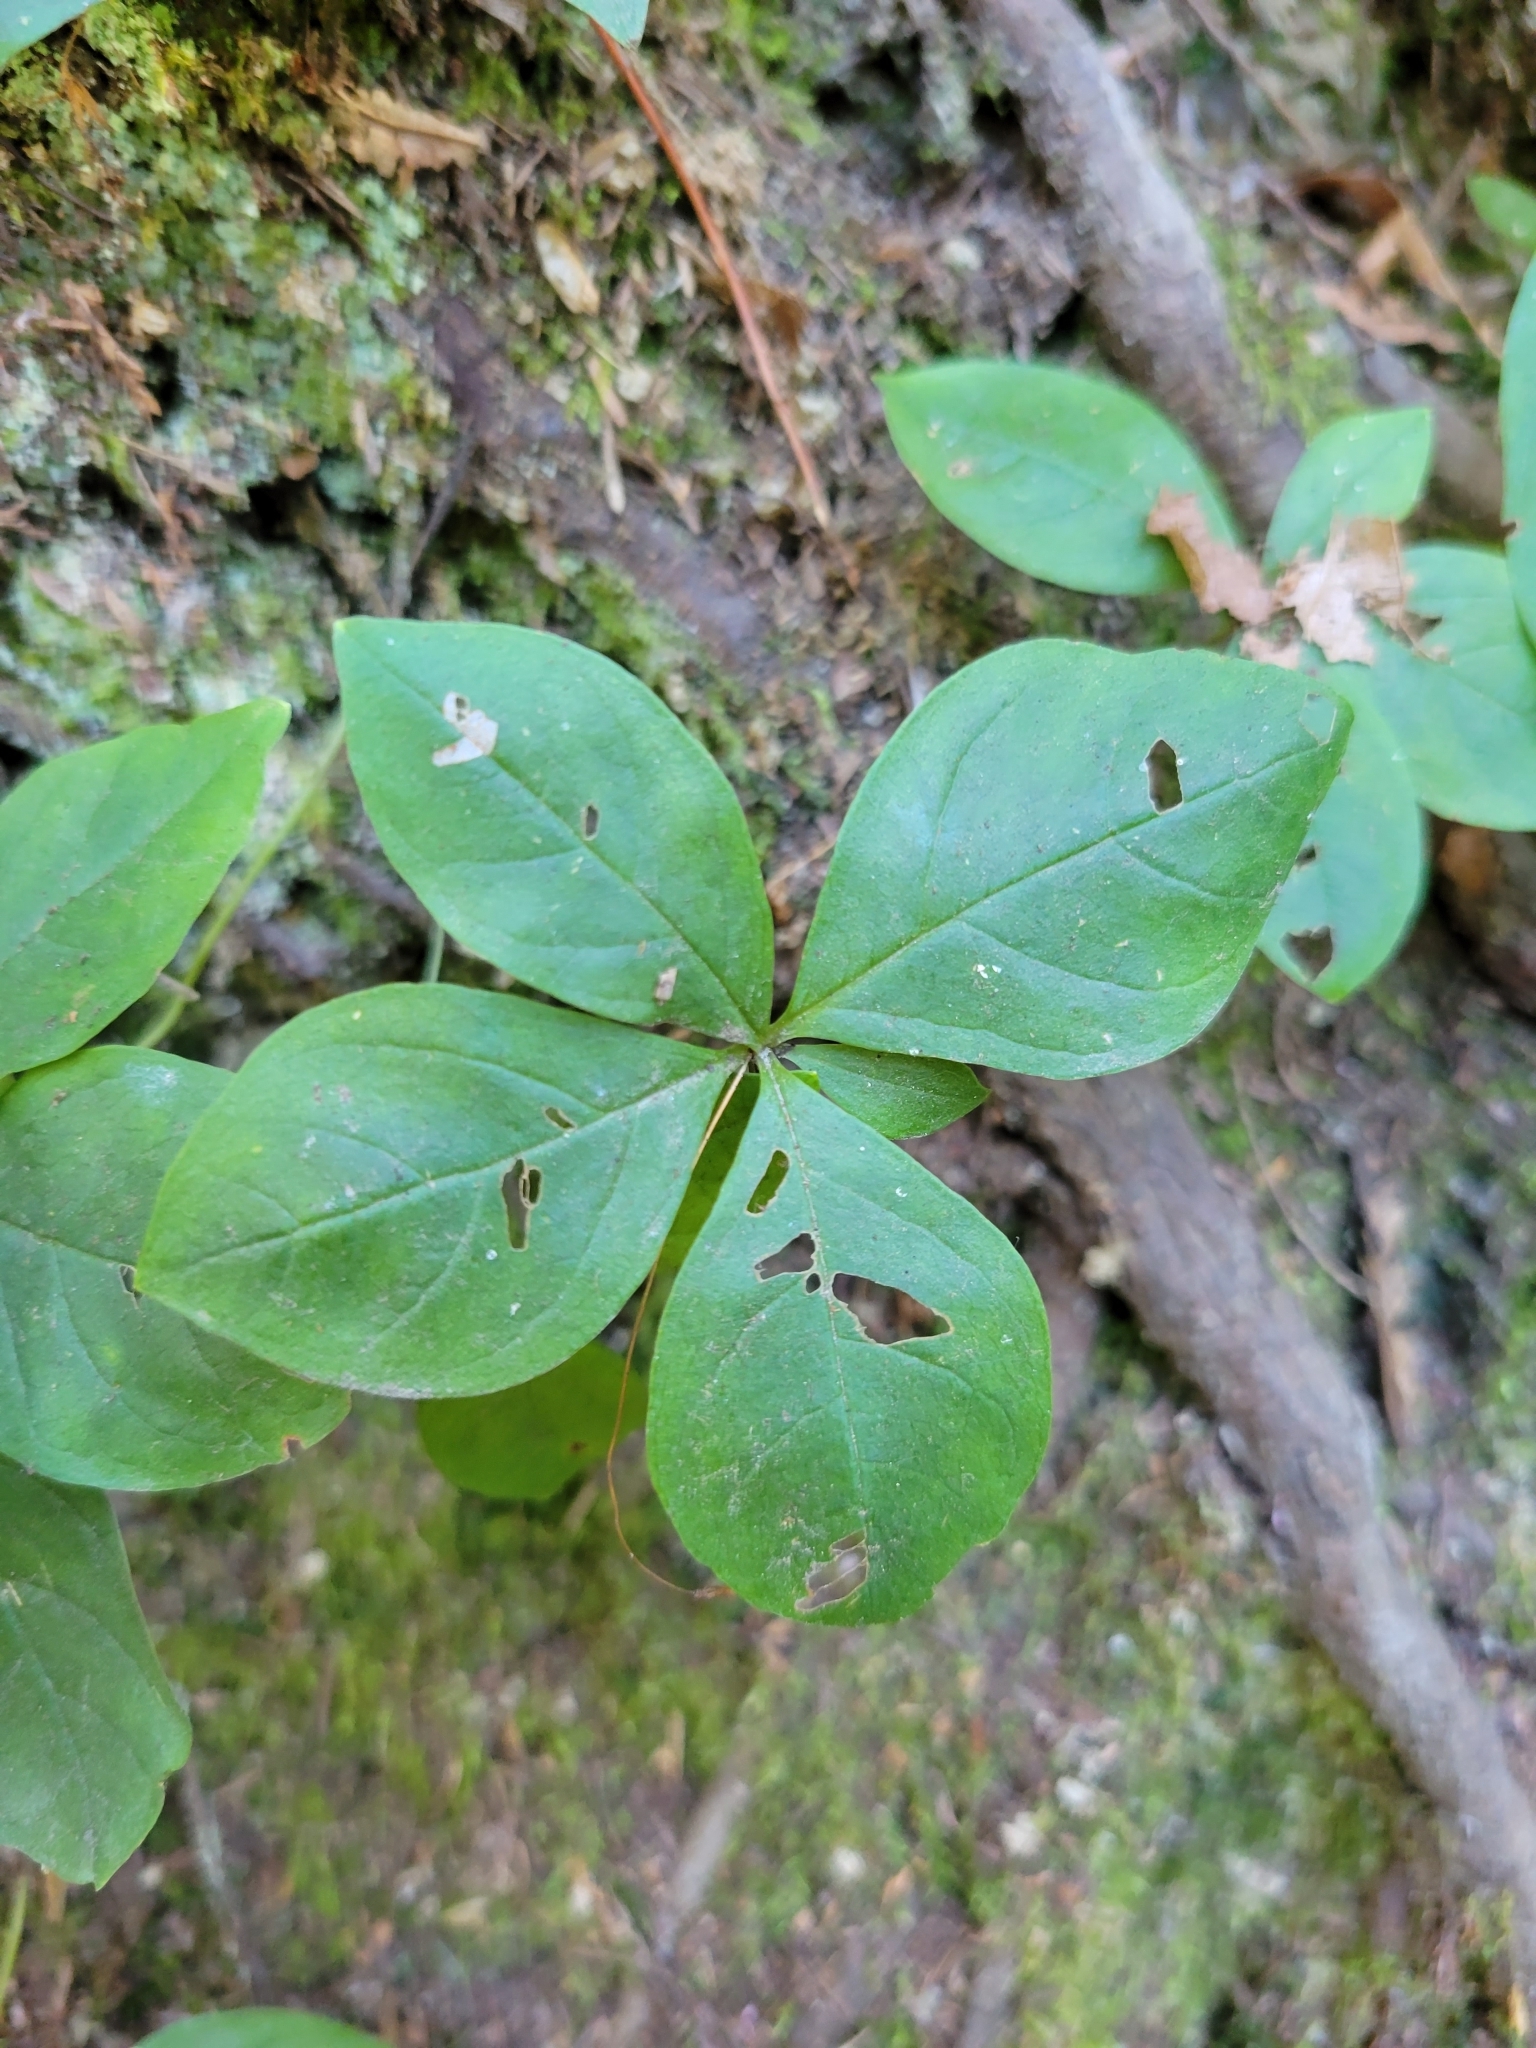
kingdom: Plantae
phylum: Tracheophyta
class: Magnoliopsida
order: Ericales
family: Primulaceae
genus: Lysimachia
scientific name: Lysimachia latifolia
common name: Pacific starflower
